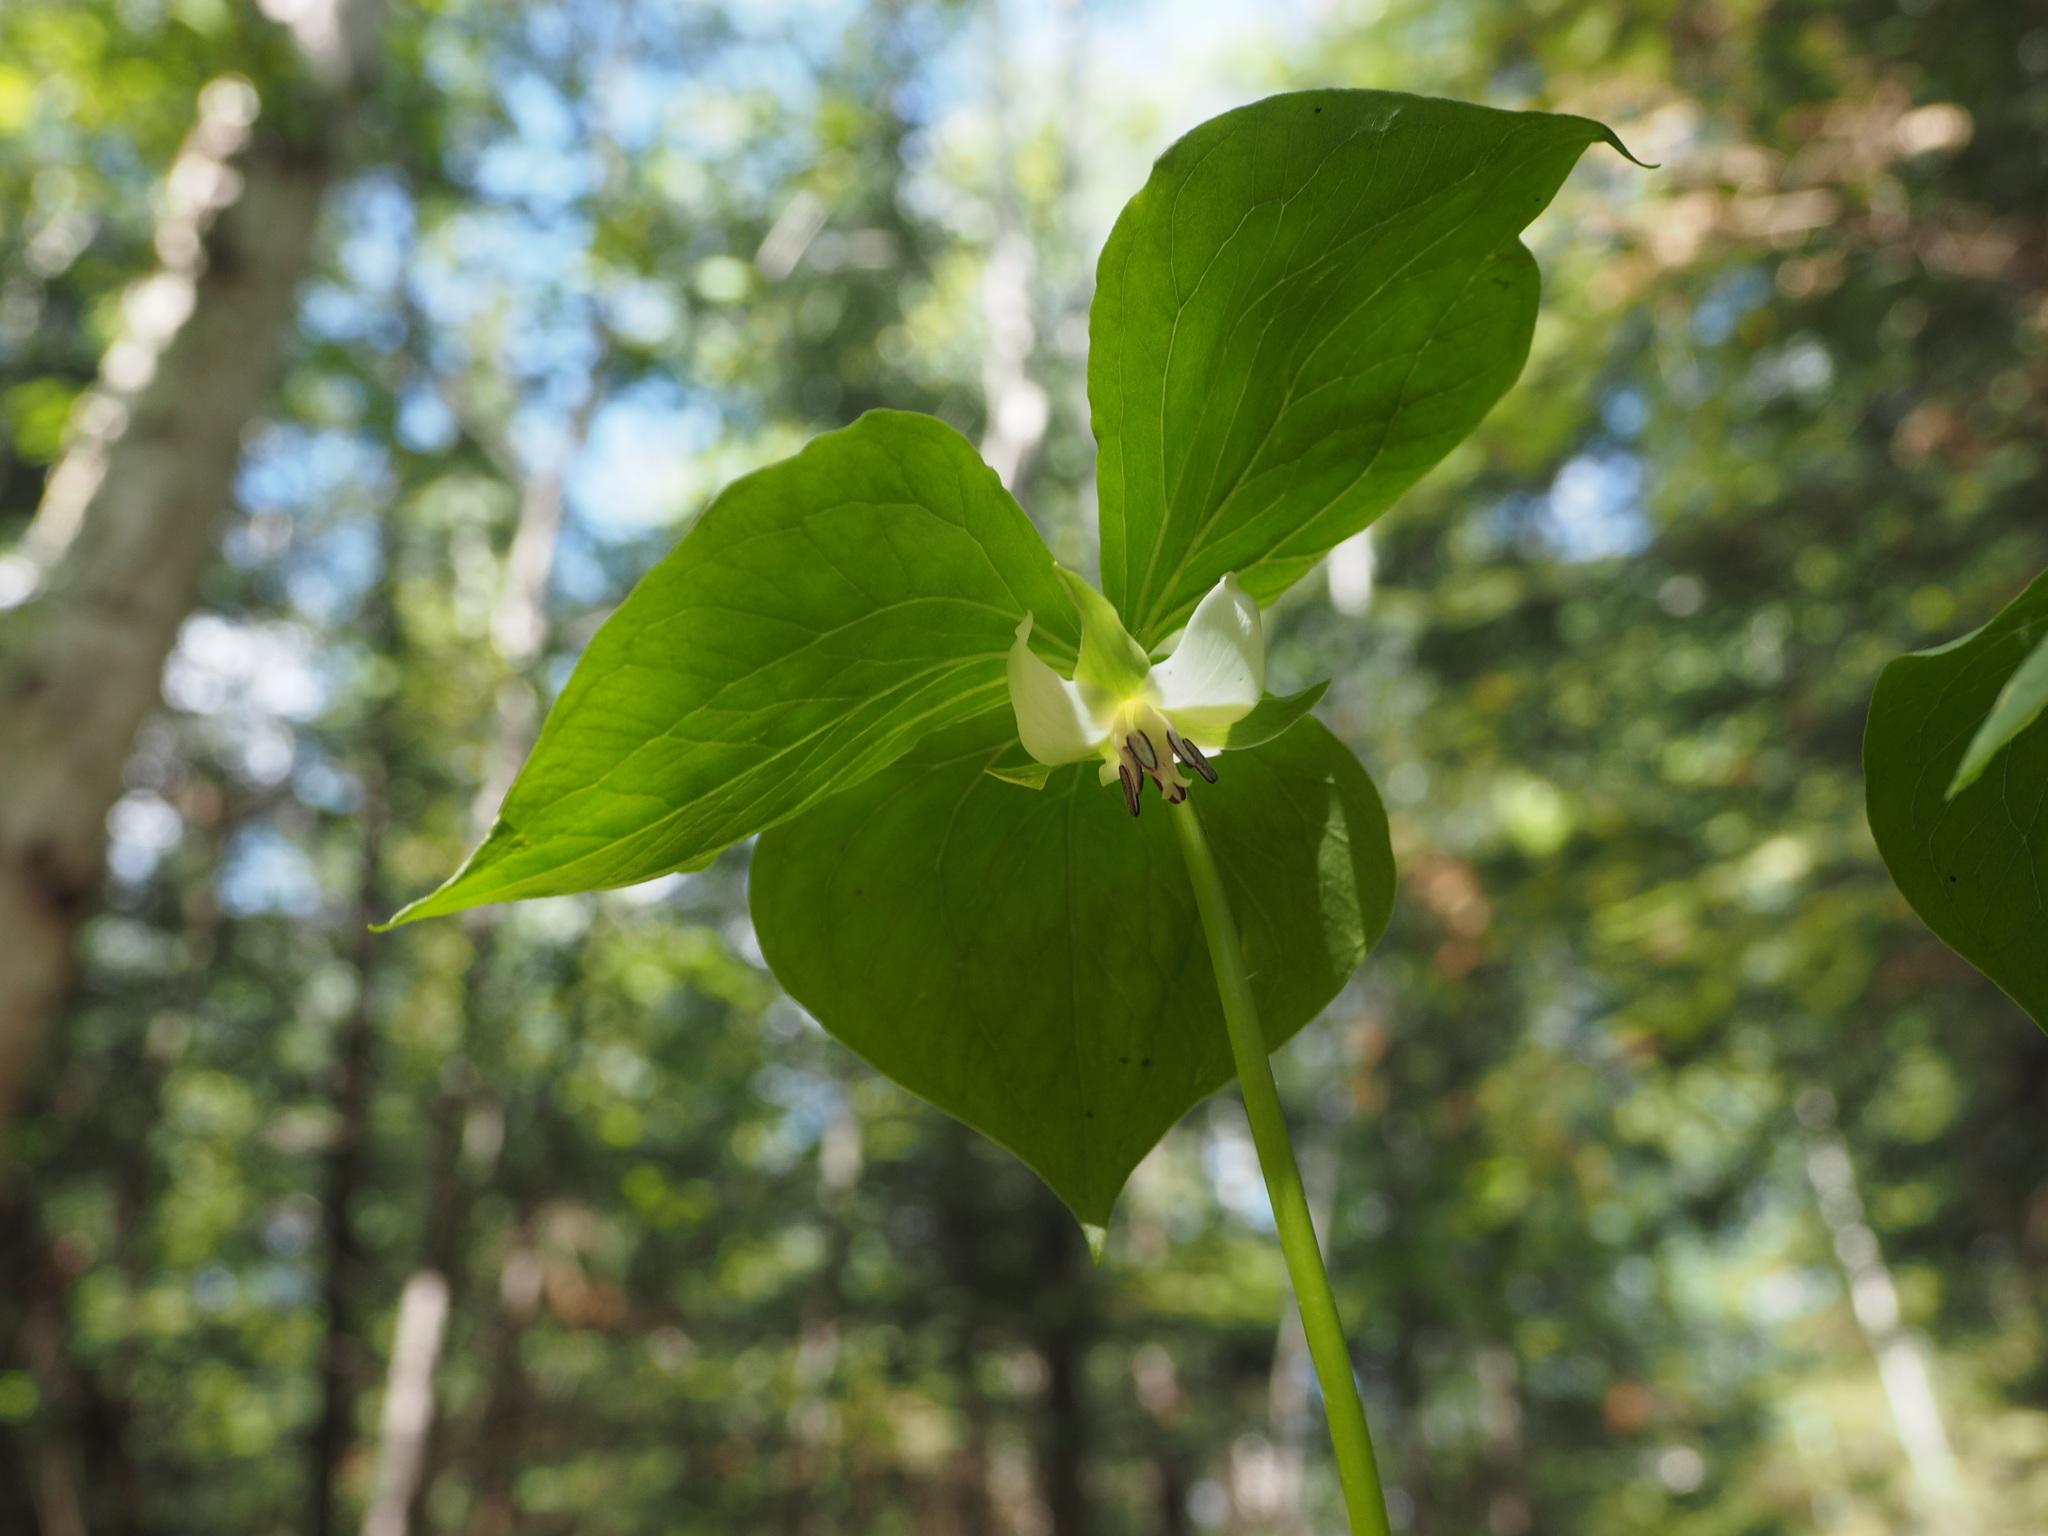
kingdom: Plantae
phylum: Tracheophyta
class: Liliopsida
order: Liliales
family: Melanthiaceae
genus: Trillium
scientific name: Trillium cernuum
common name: Nodding trillium
